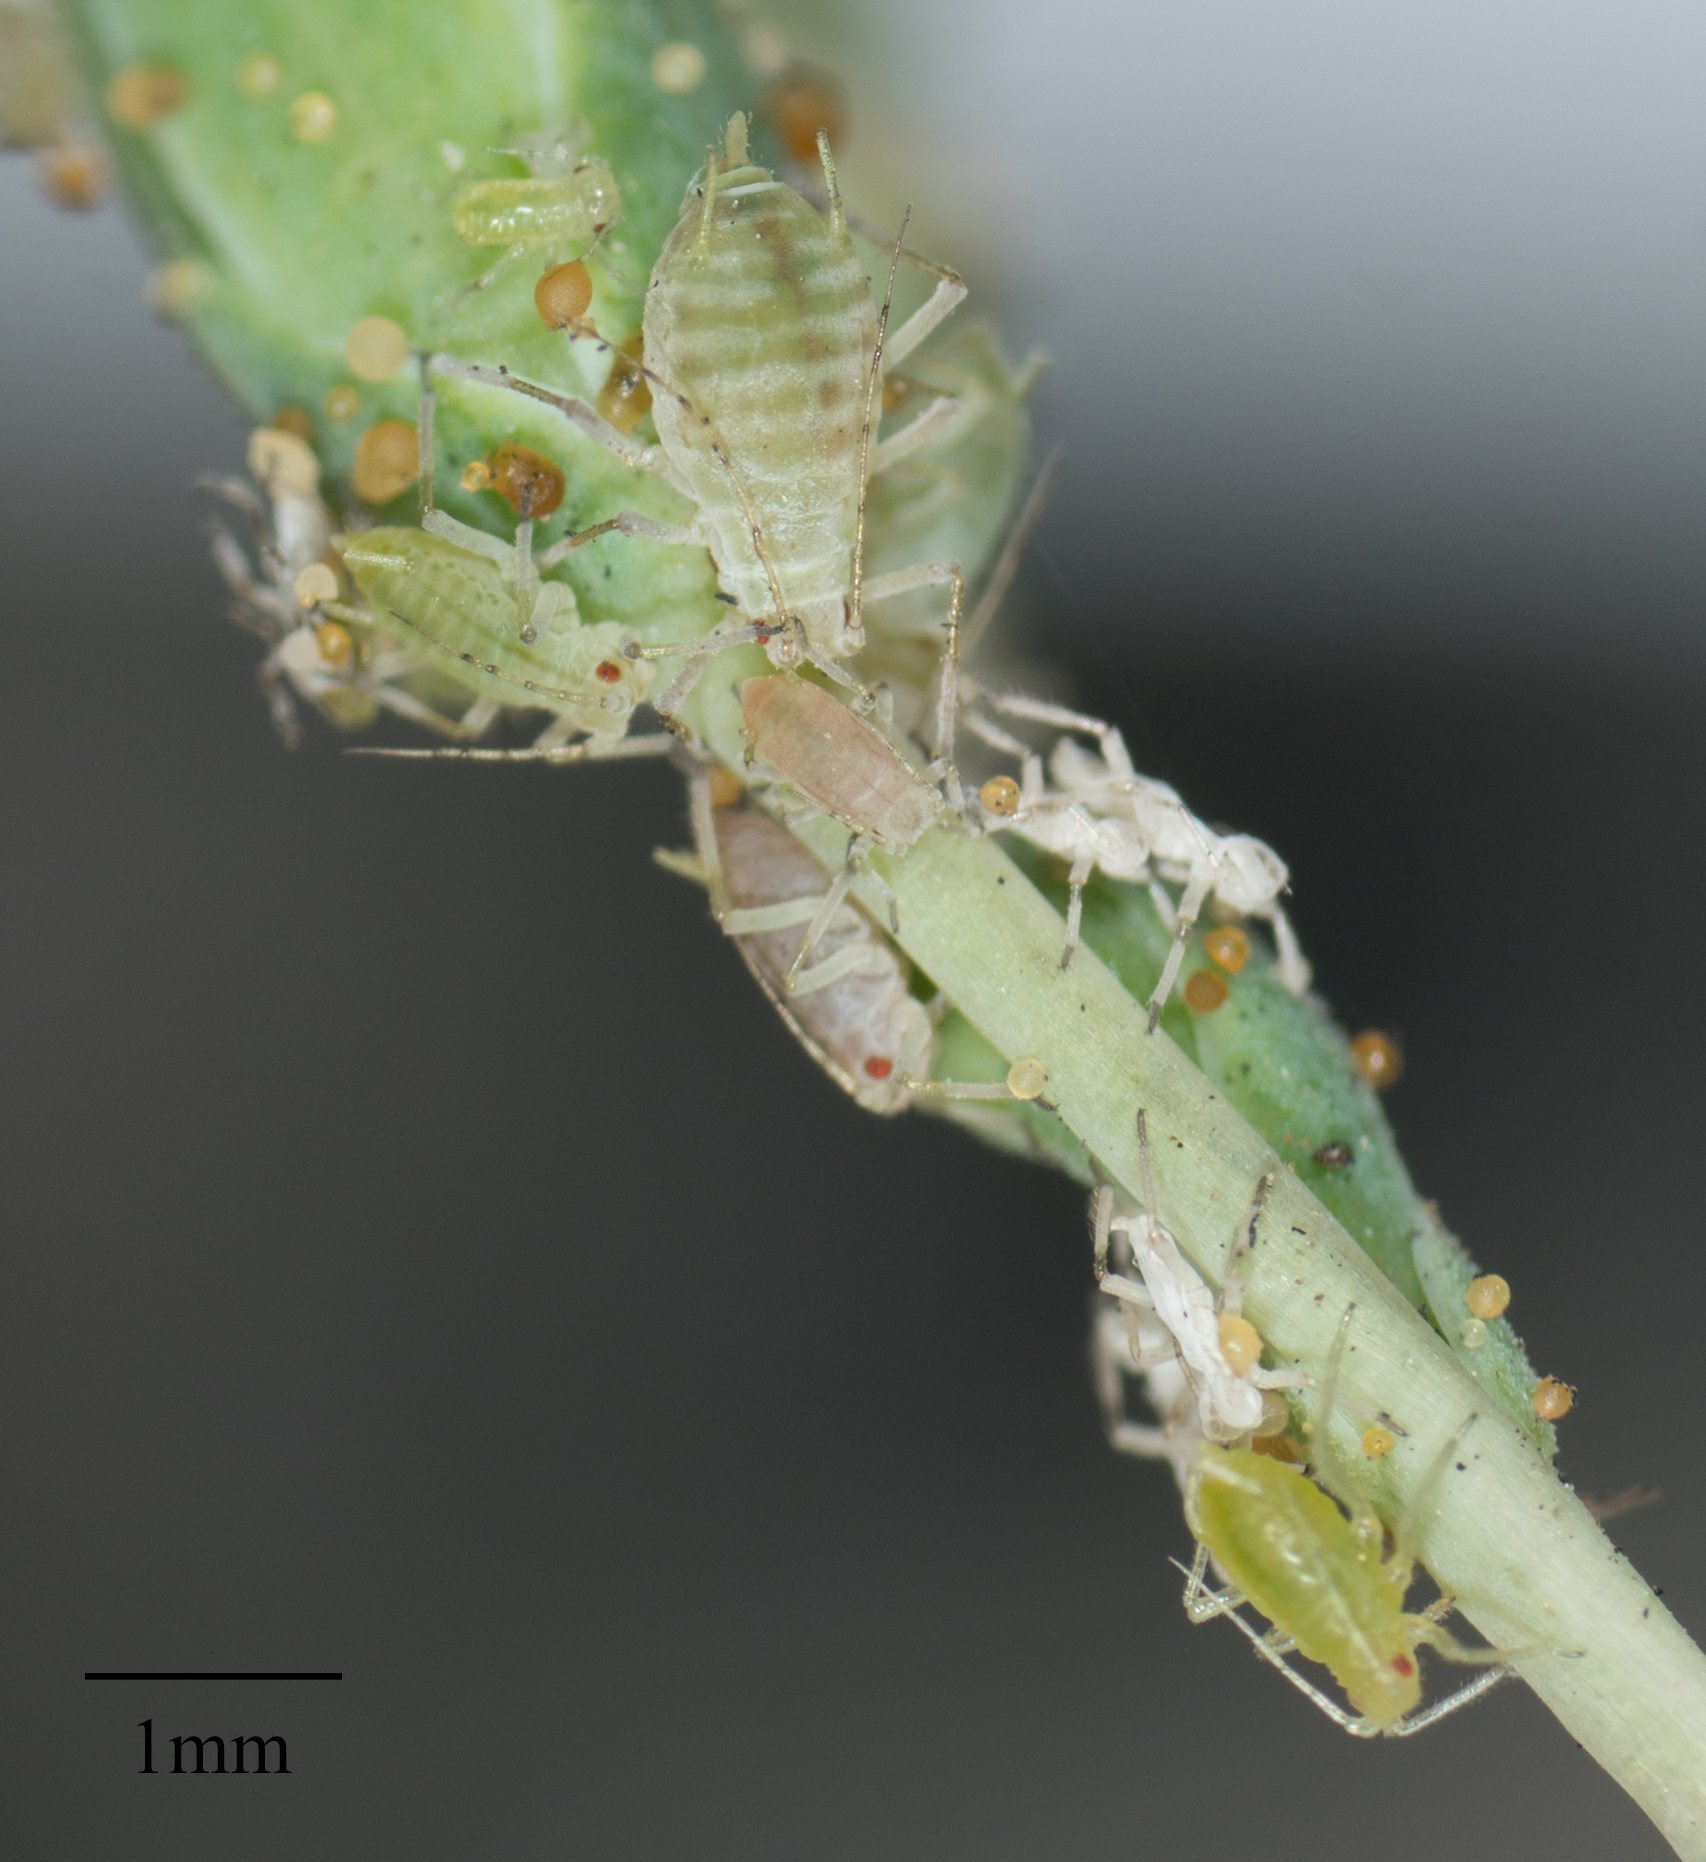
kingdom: Animalia
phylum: Arthropoda
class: Insecta
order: Hemiptera
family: Aphididae
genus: Acyrthosiphon
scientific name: Acyrthosiphon lactucae
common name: Aphid
